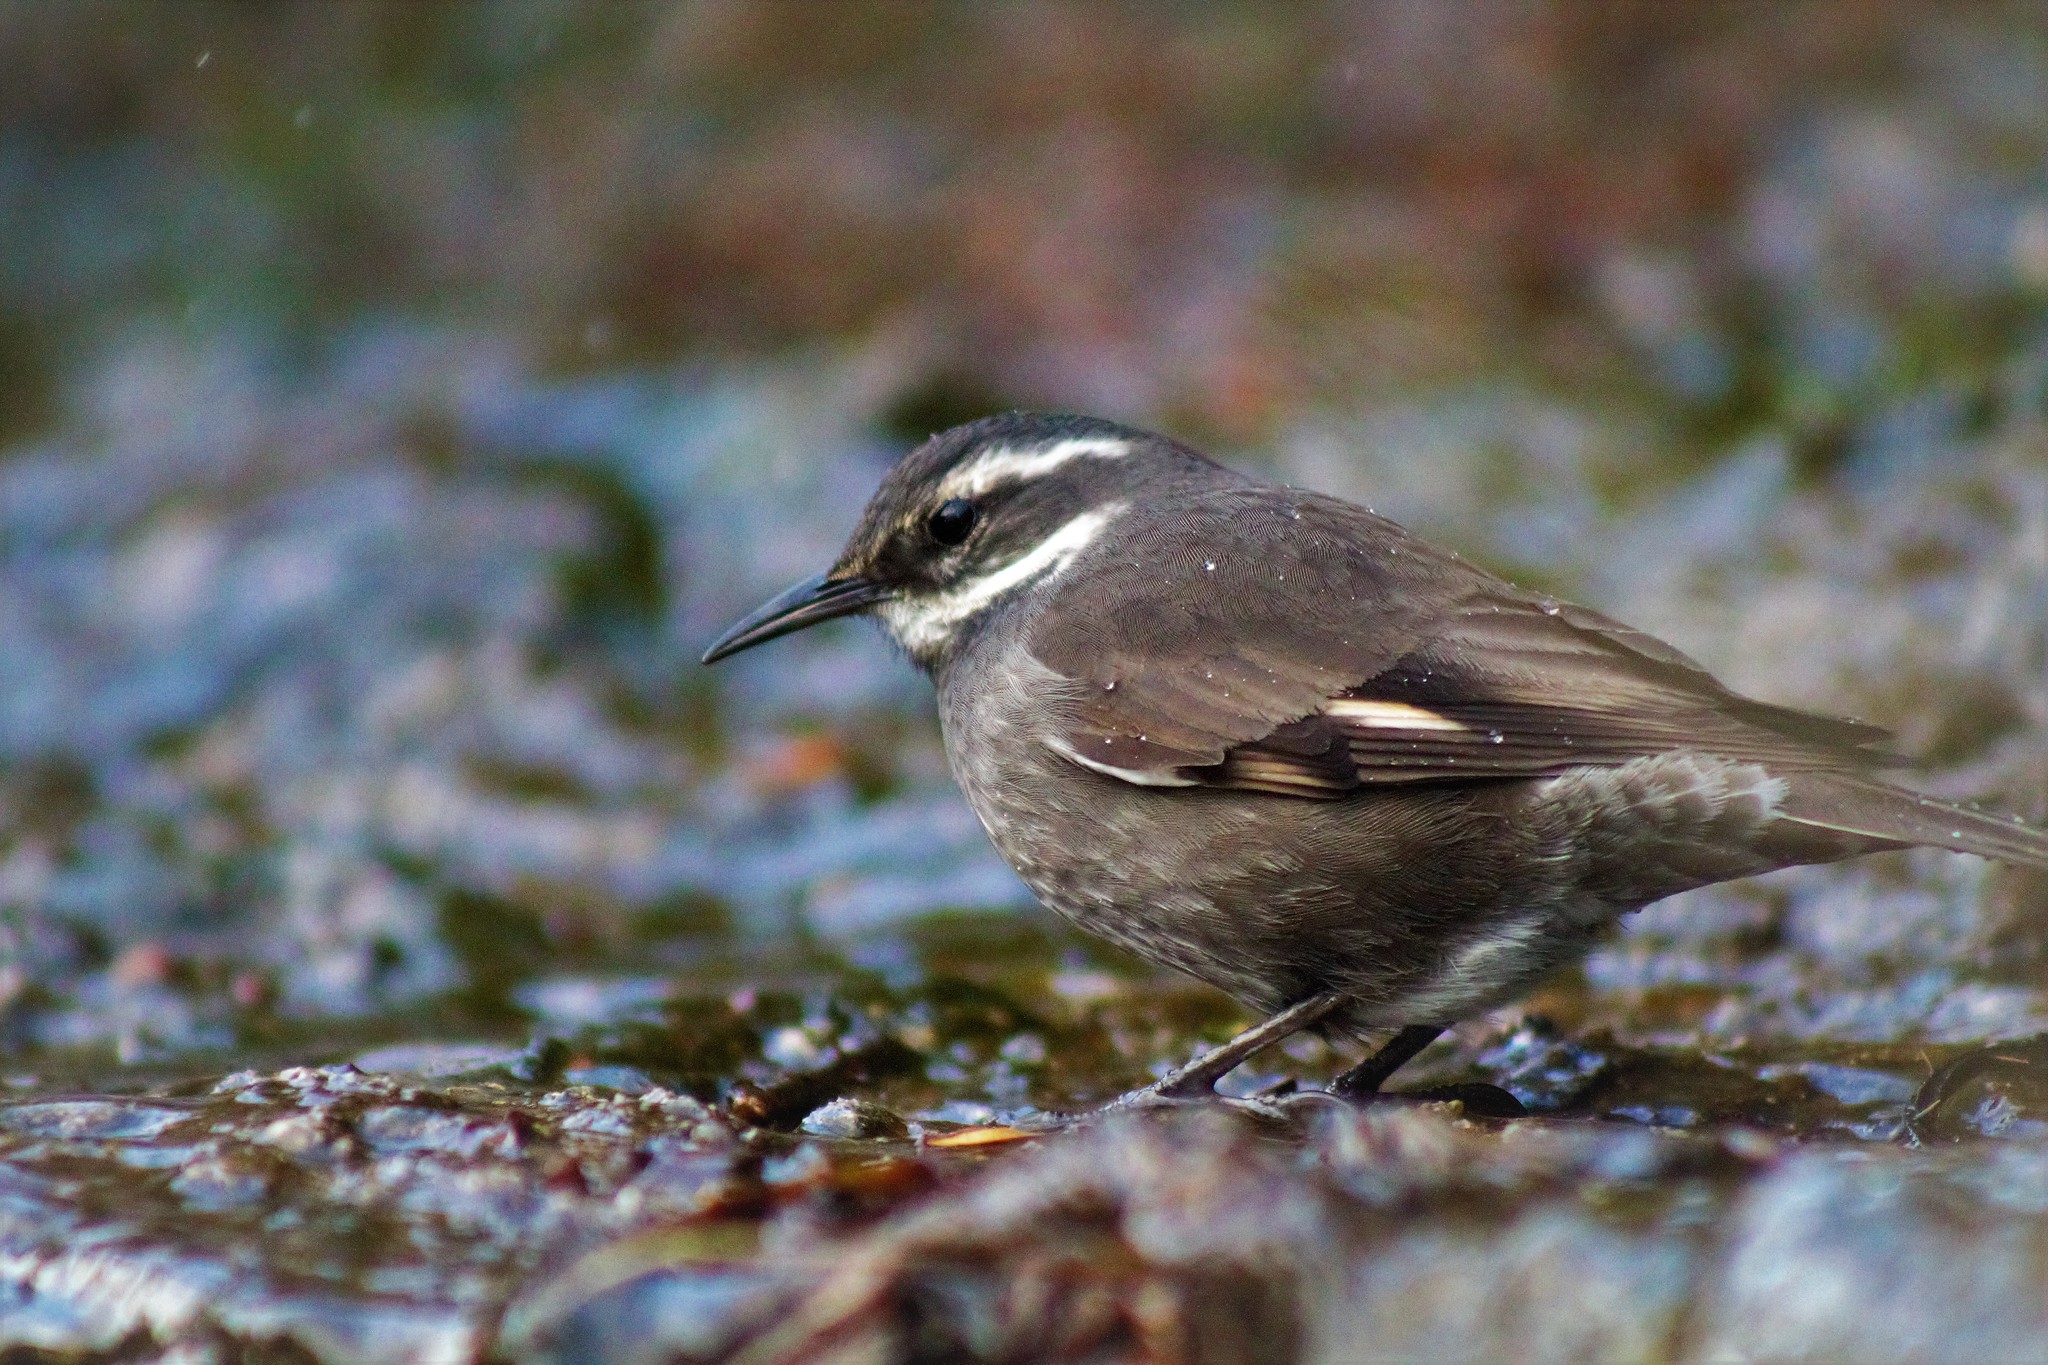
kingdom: Animalia
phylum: Chordata
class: Aves
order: Passeriformes
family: Furnariidae
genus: Cinclodes
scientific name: Cinclodes fuscus
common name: Buff-winged cinclodes
